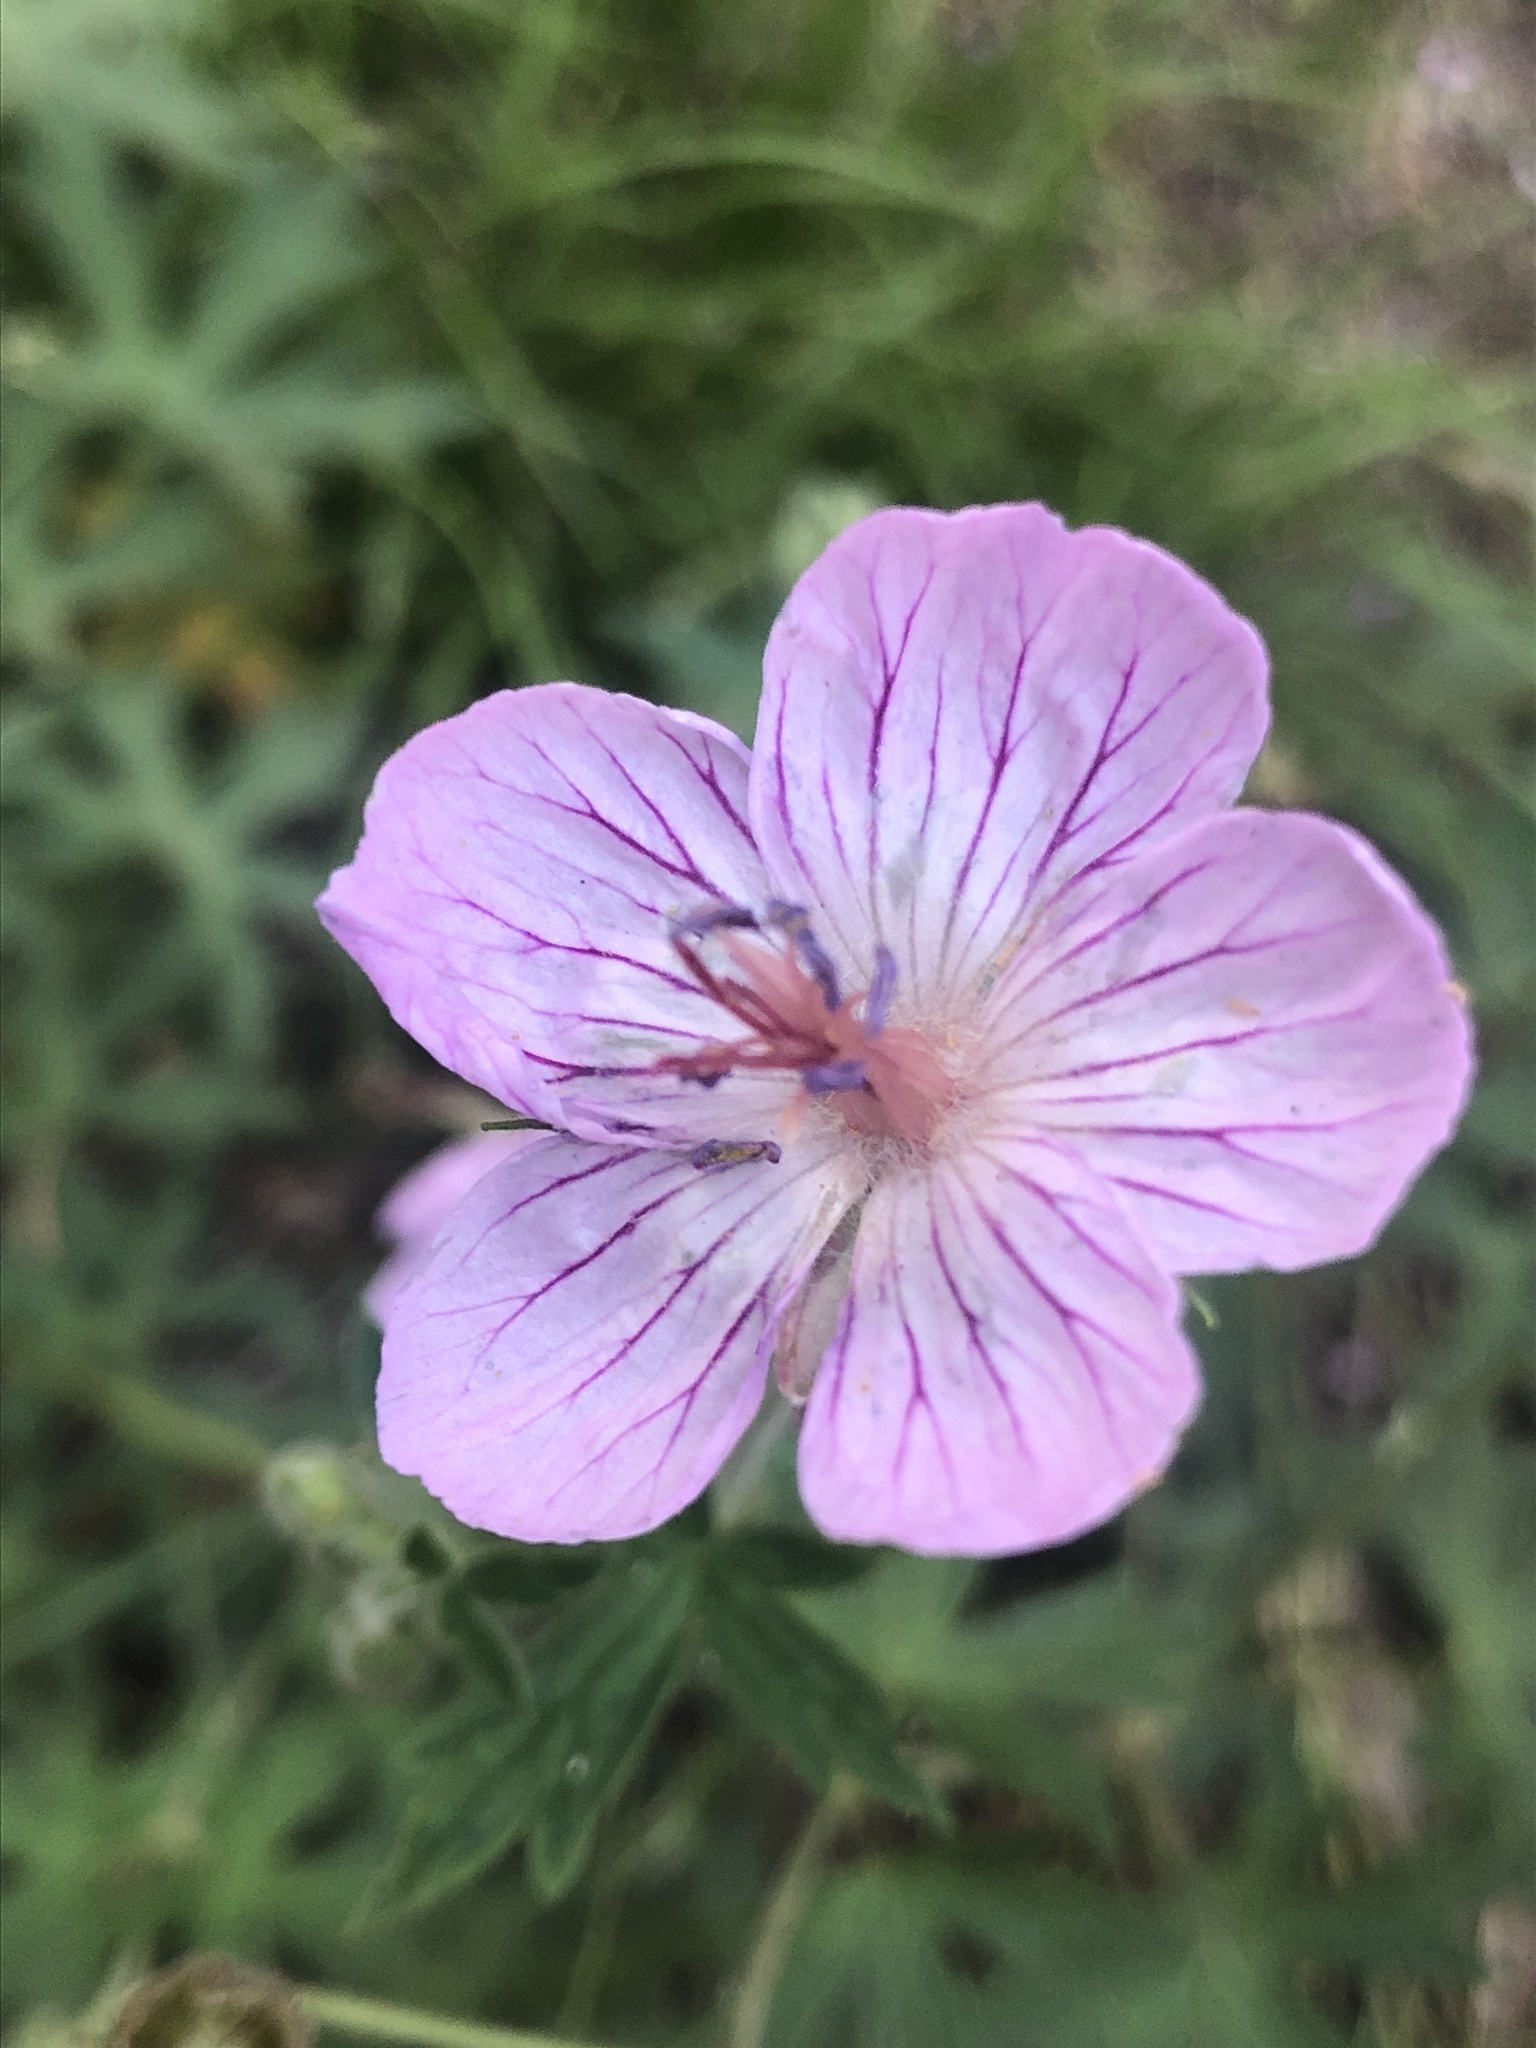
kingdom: Plantae
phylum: Tracheophyta
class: Magnoliopsida
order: Geraniales
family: Geraniaceae
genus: Geranium
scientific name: Geranium californicum
